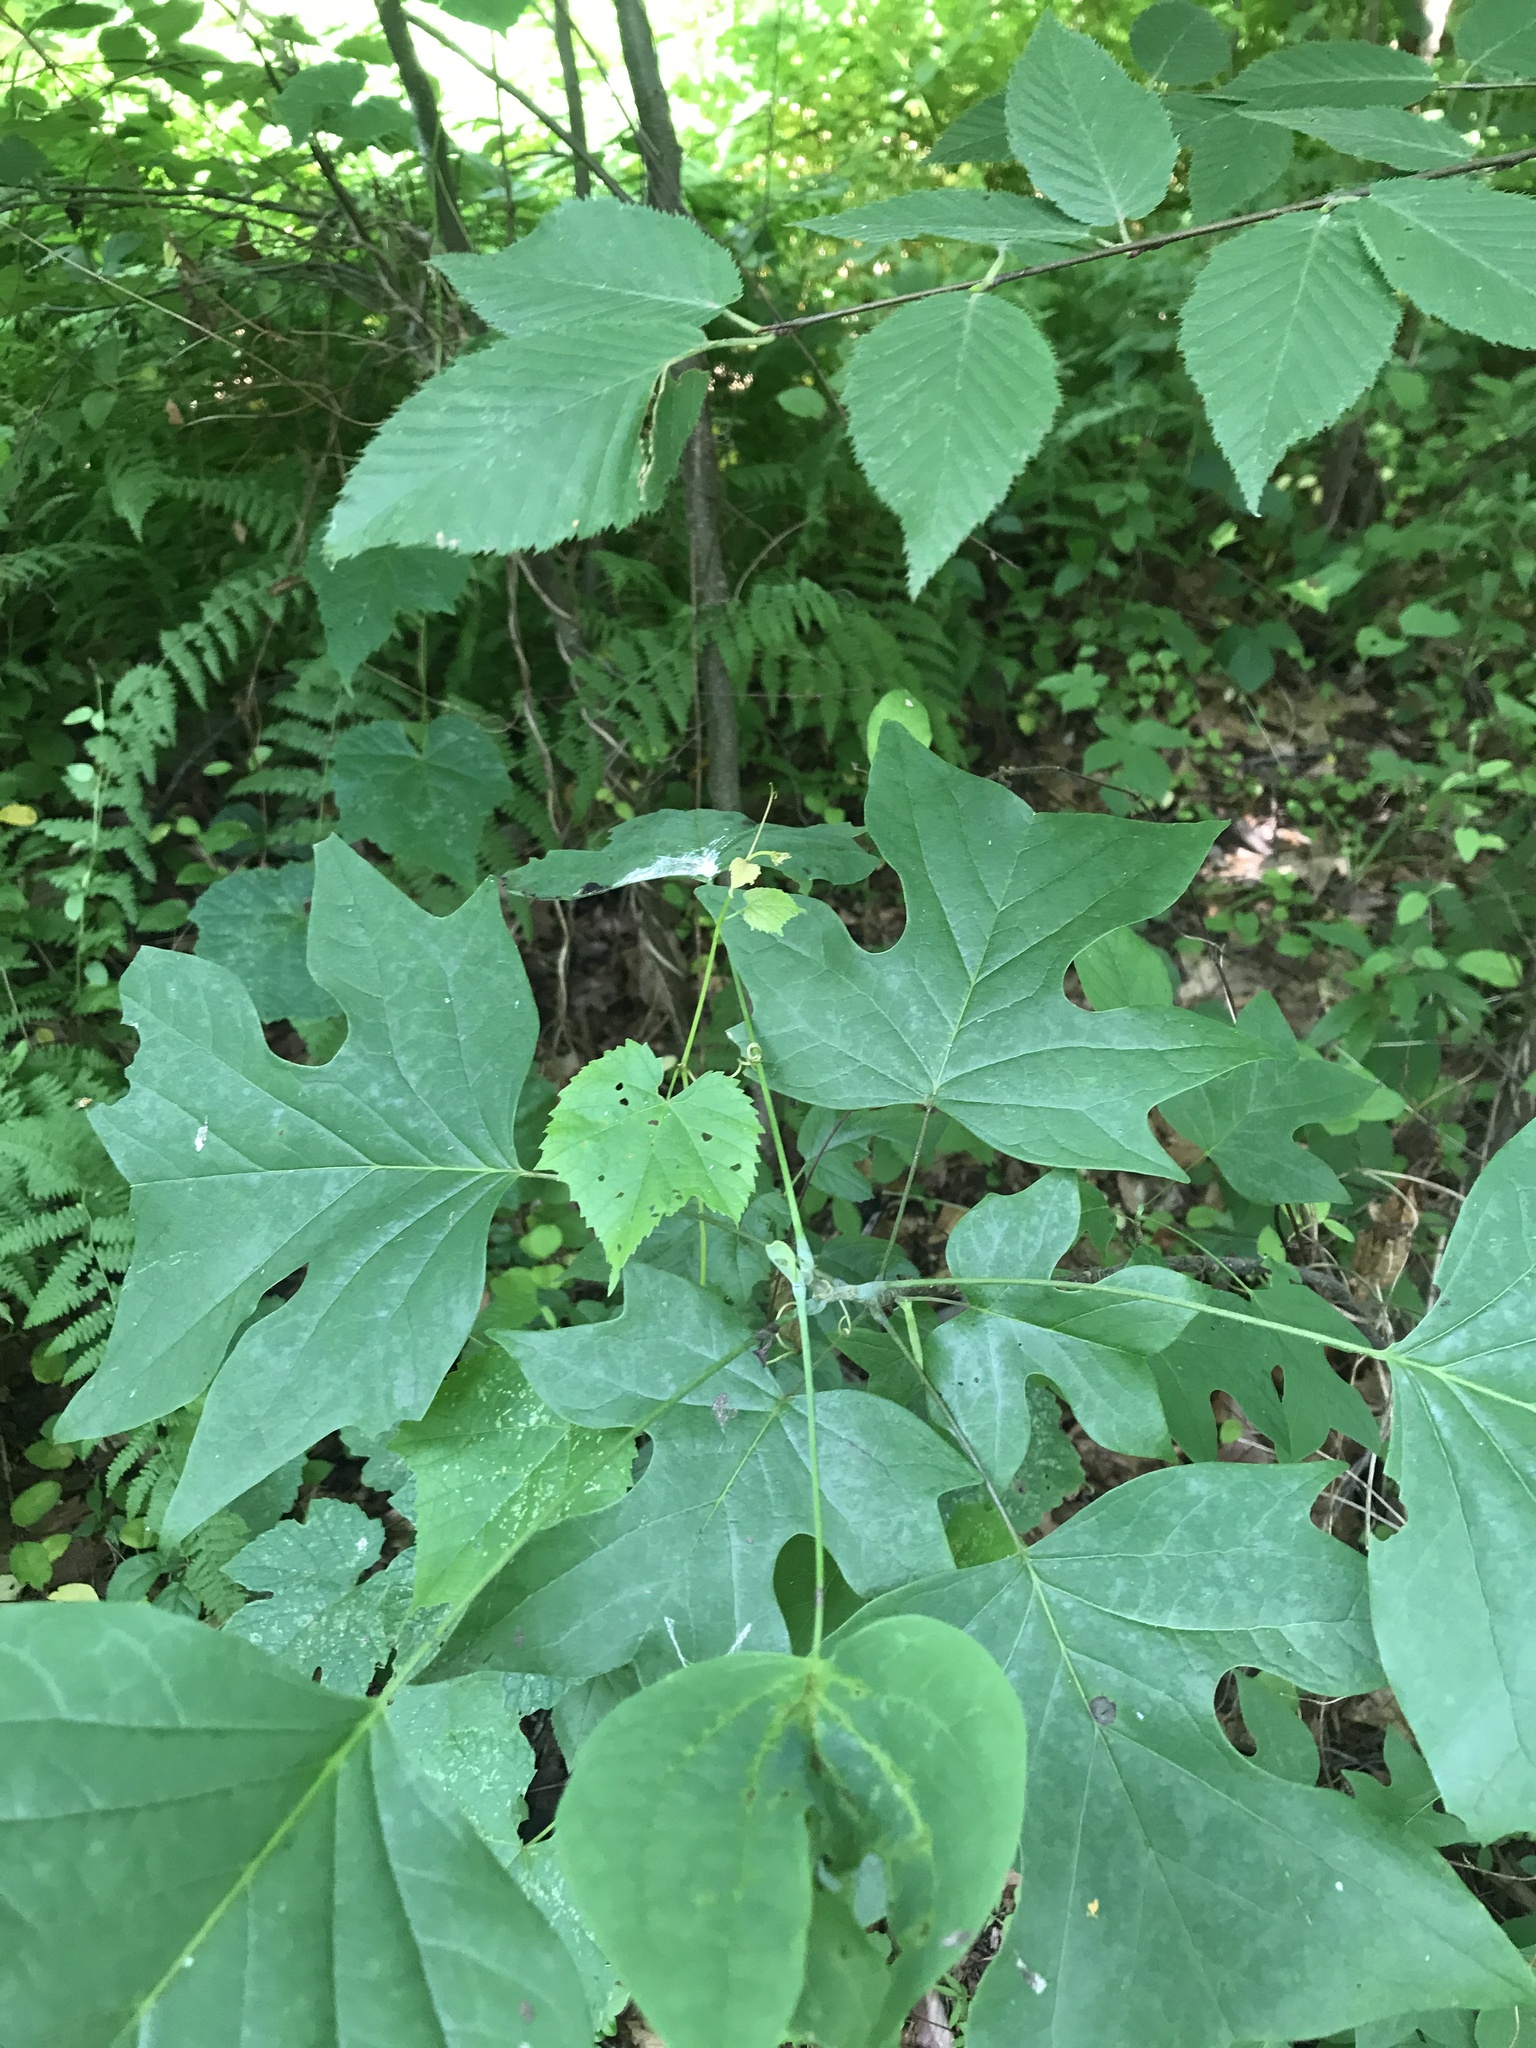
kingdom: Plantae
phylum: Tracheophyta
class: Magnoliopsida
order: Magnoliales
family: Magnoliaceae
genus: Liriodendron
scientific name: Liriodendron tulipifera
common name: Tulip tree
